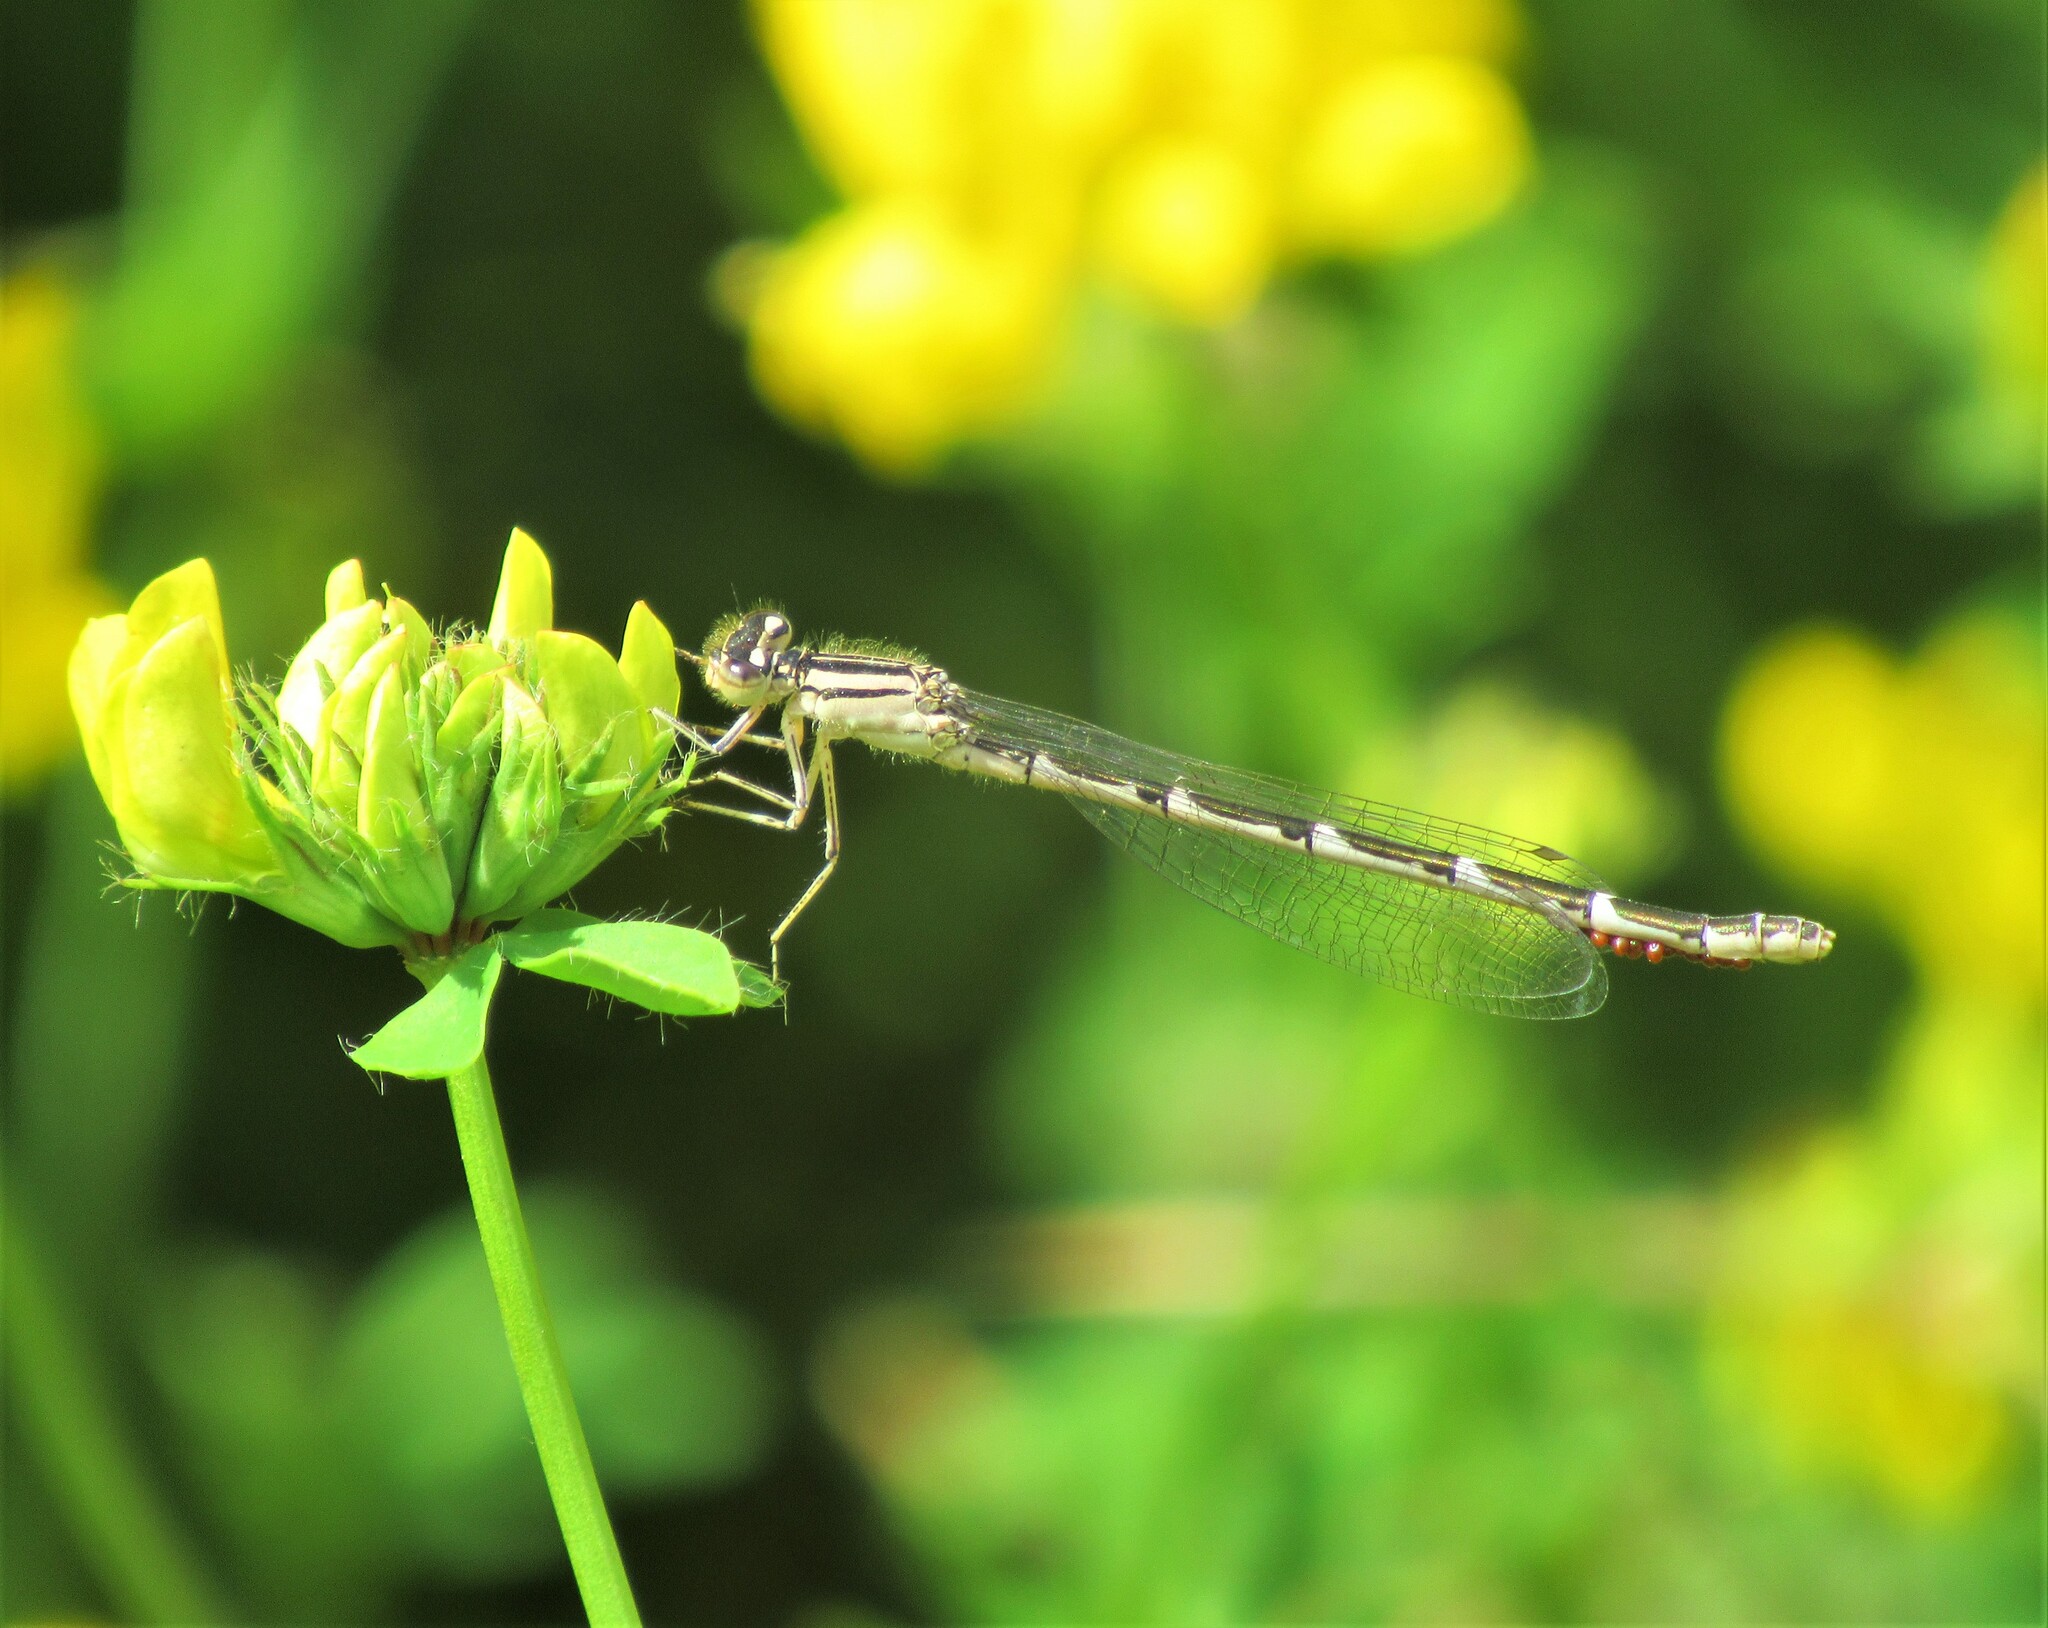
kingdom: Animalia
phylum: Arthropoda
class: Insecta
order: Odonata
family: Coenagrionidae
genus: Enallagma
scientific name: Enallagma carunculatum
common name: Tule bluet
